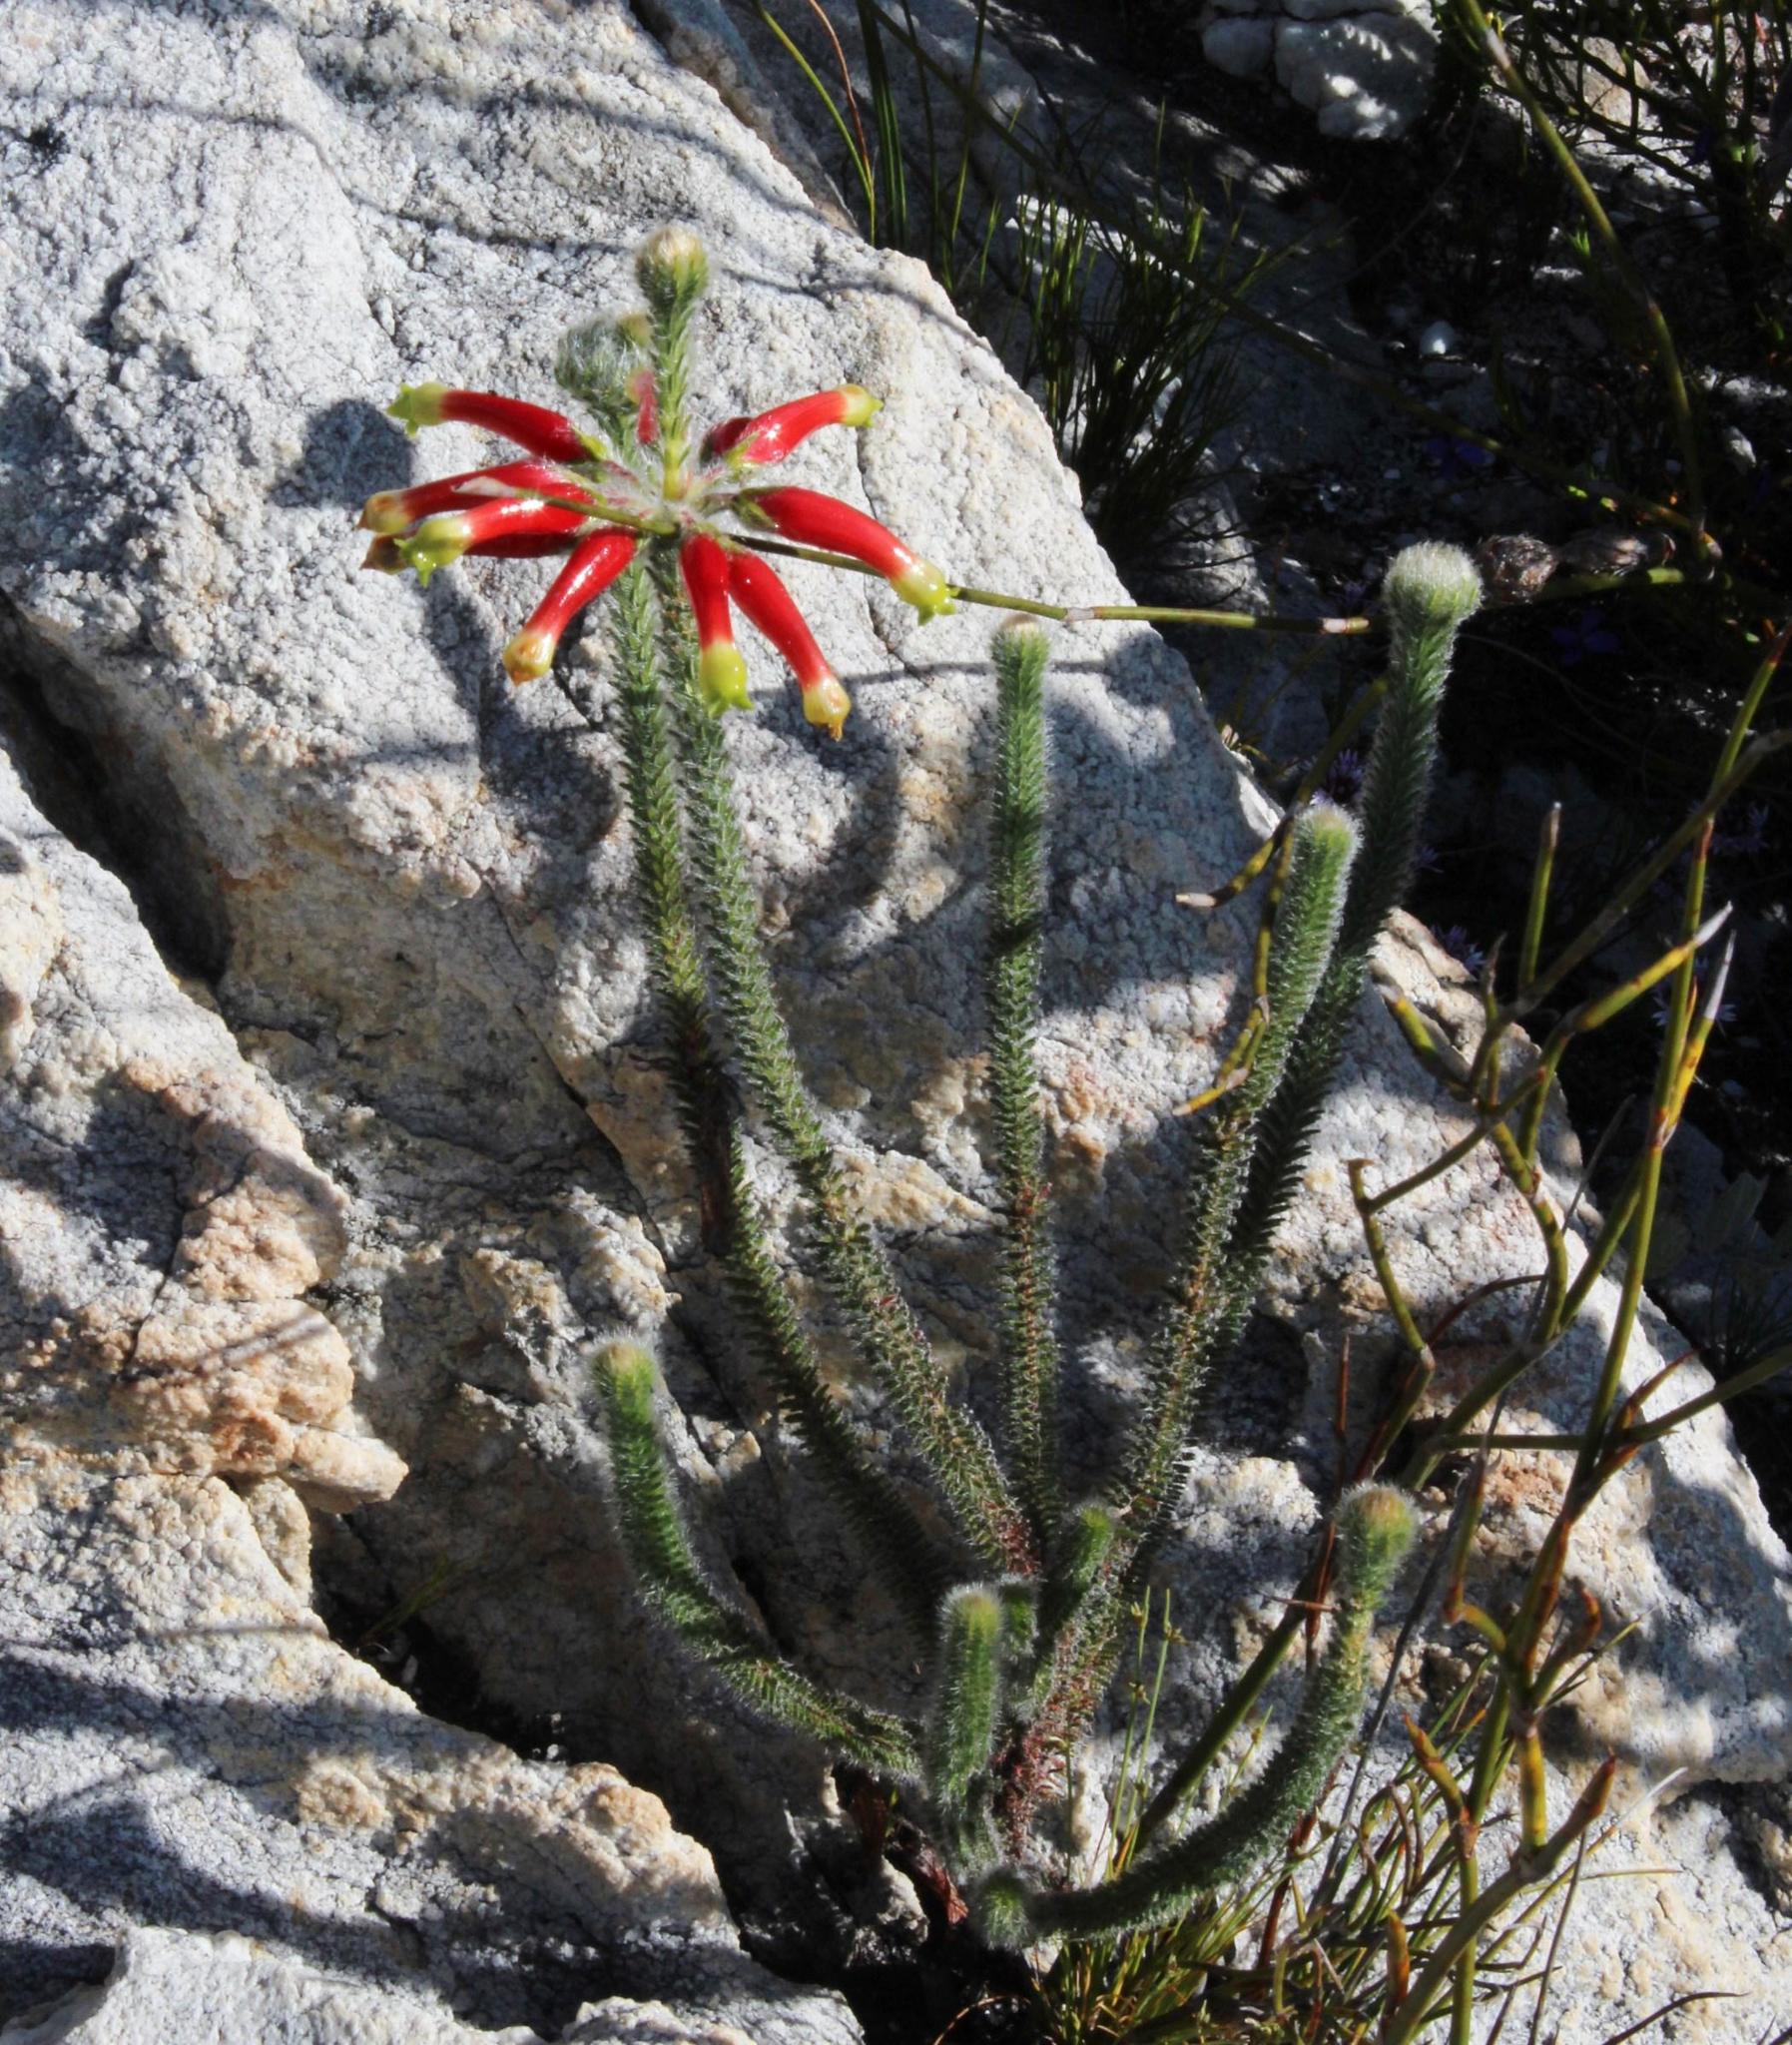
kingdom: Plantae
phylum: Tracheophyta
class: Magnoliopsida
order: Ericales
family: Ericaceae
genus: Erica
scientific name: Erica massonii
